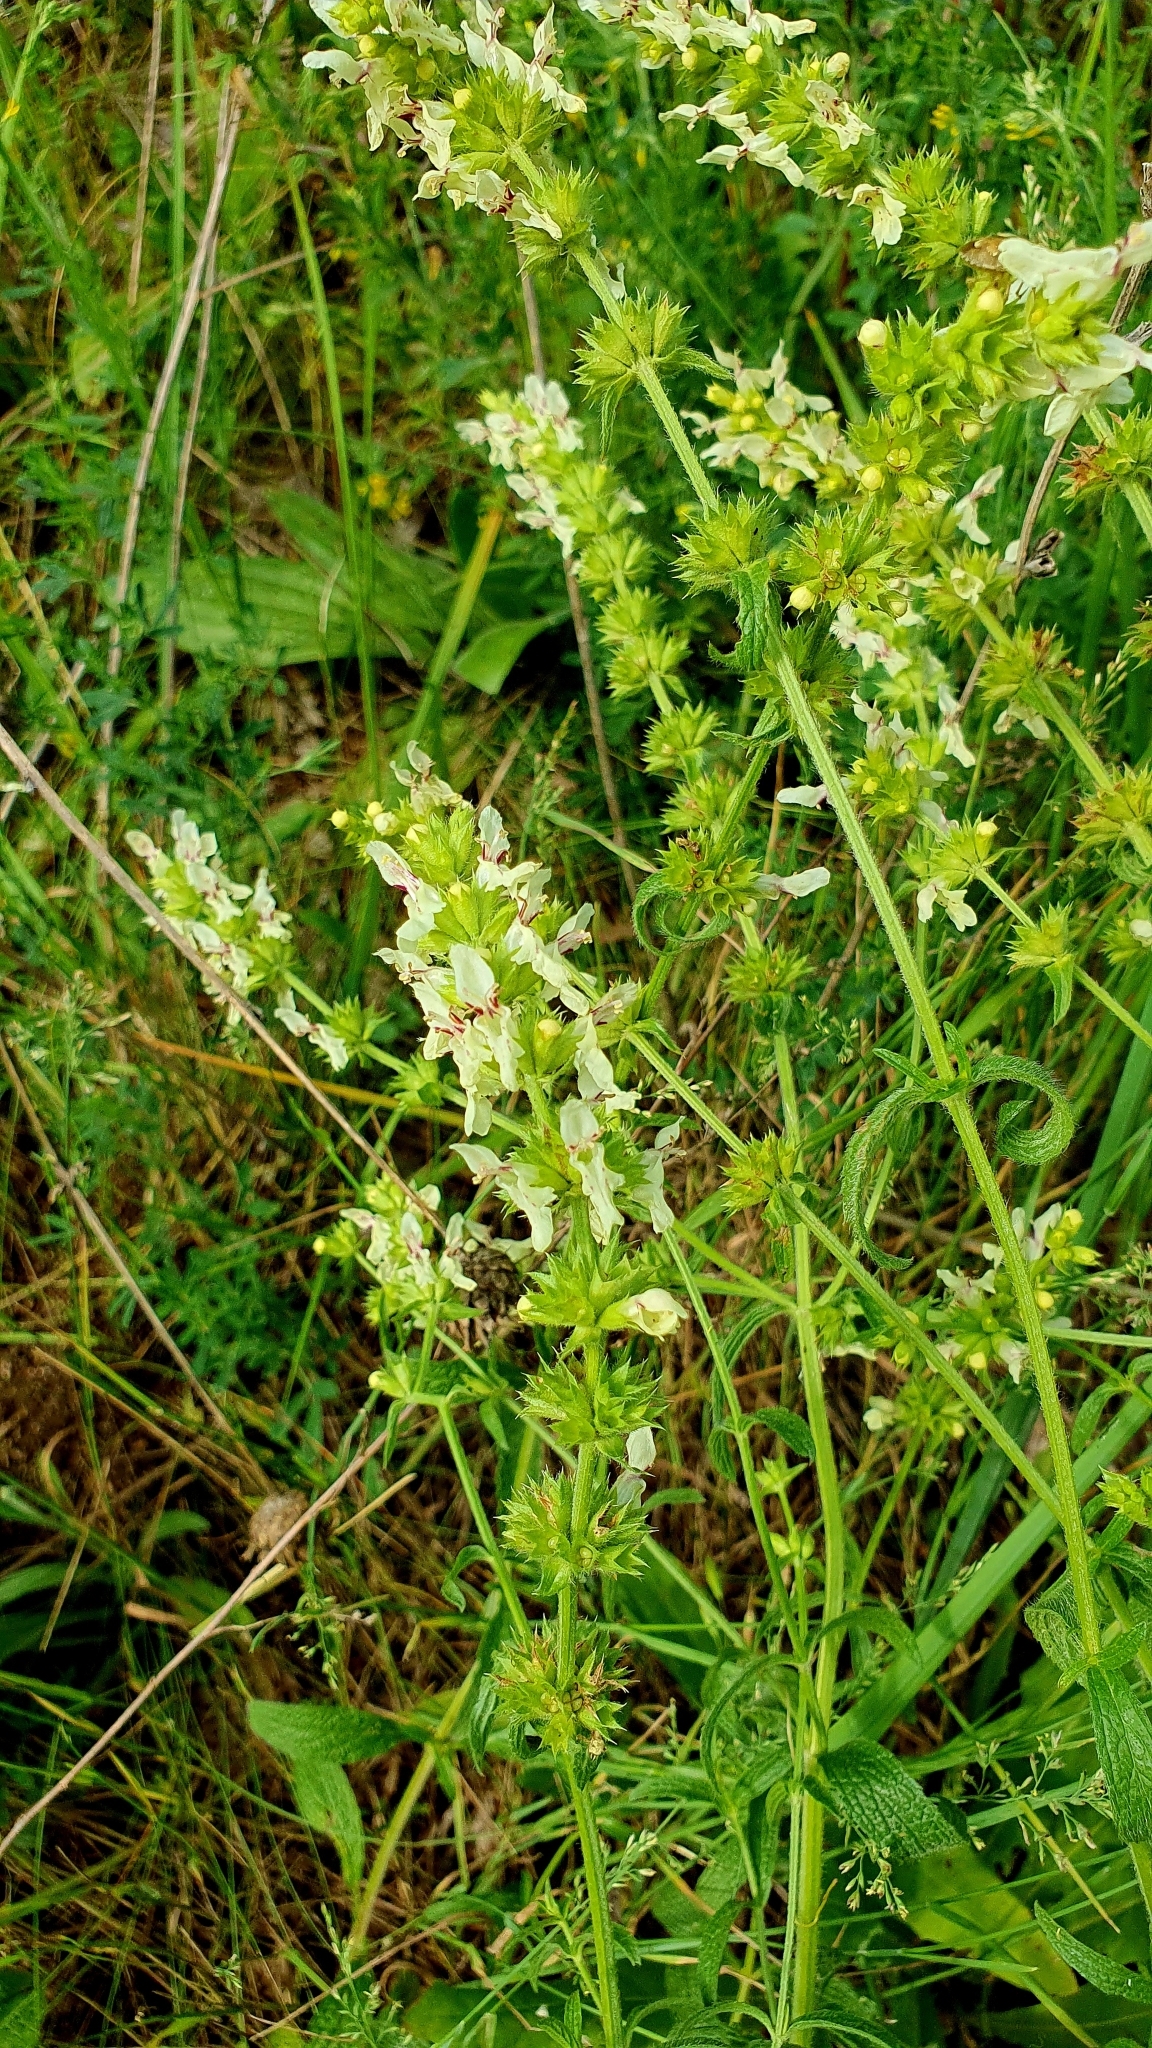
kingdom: Plantae
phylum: Tracheophyta
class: Magnoliopsida
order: Lamiales
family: Lamiaceae
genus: Stachys
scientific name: Stachys recta
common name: Perennial yellow-woundwort
